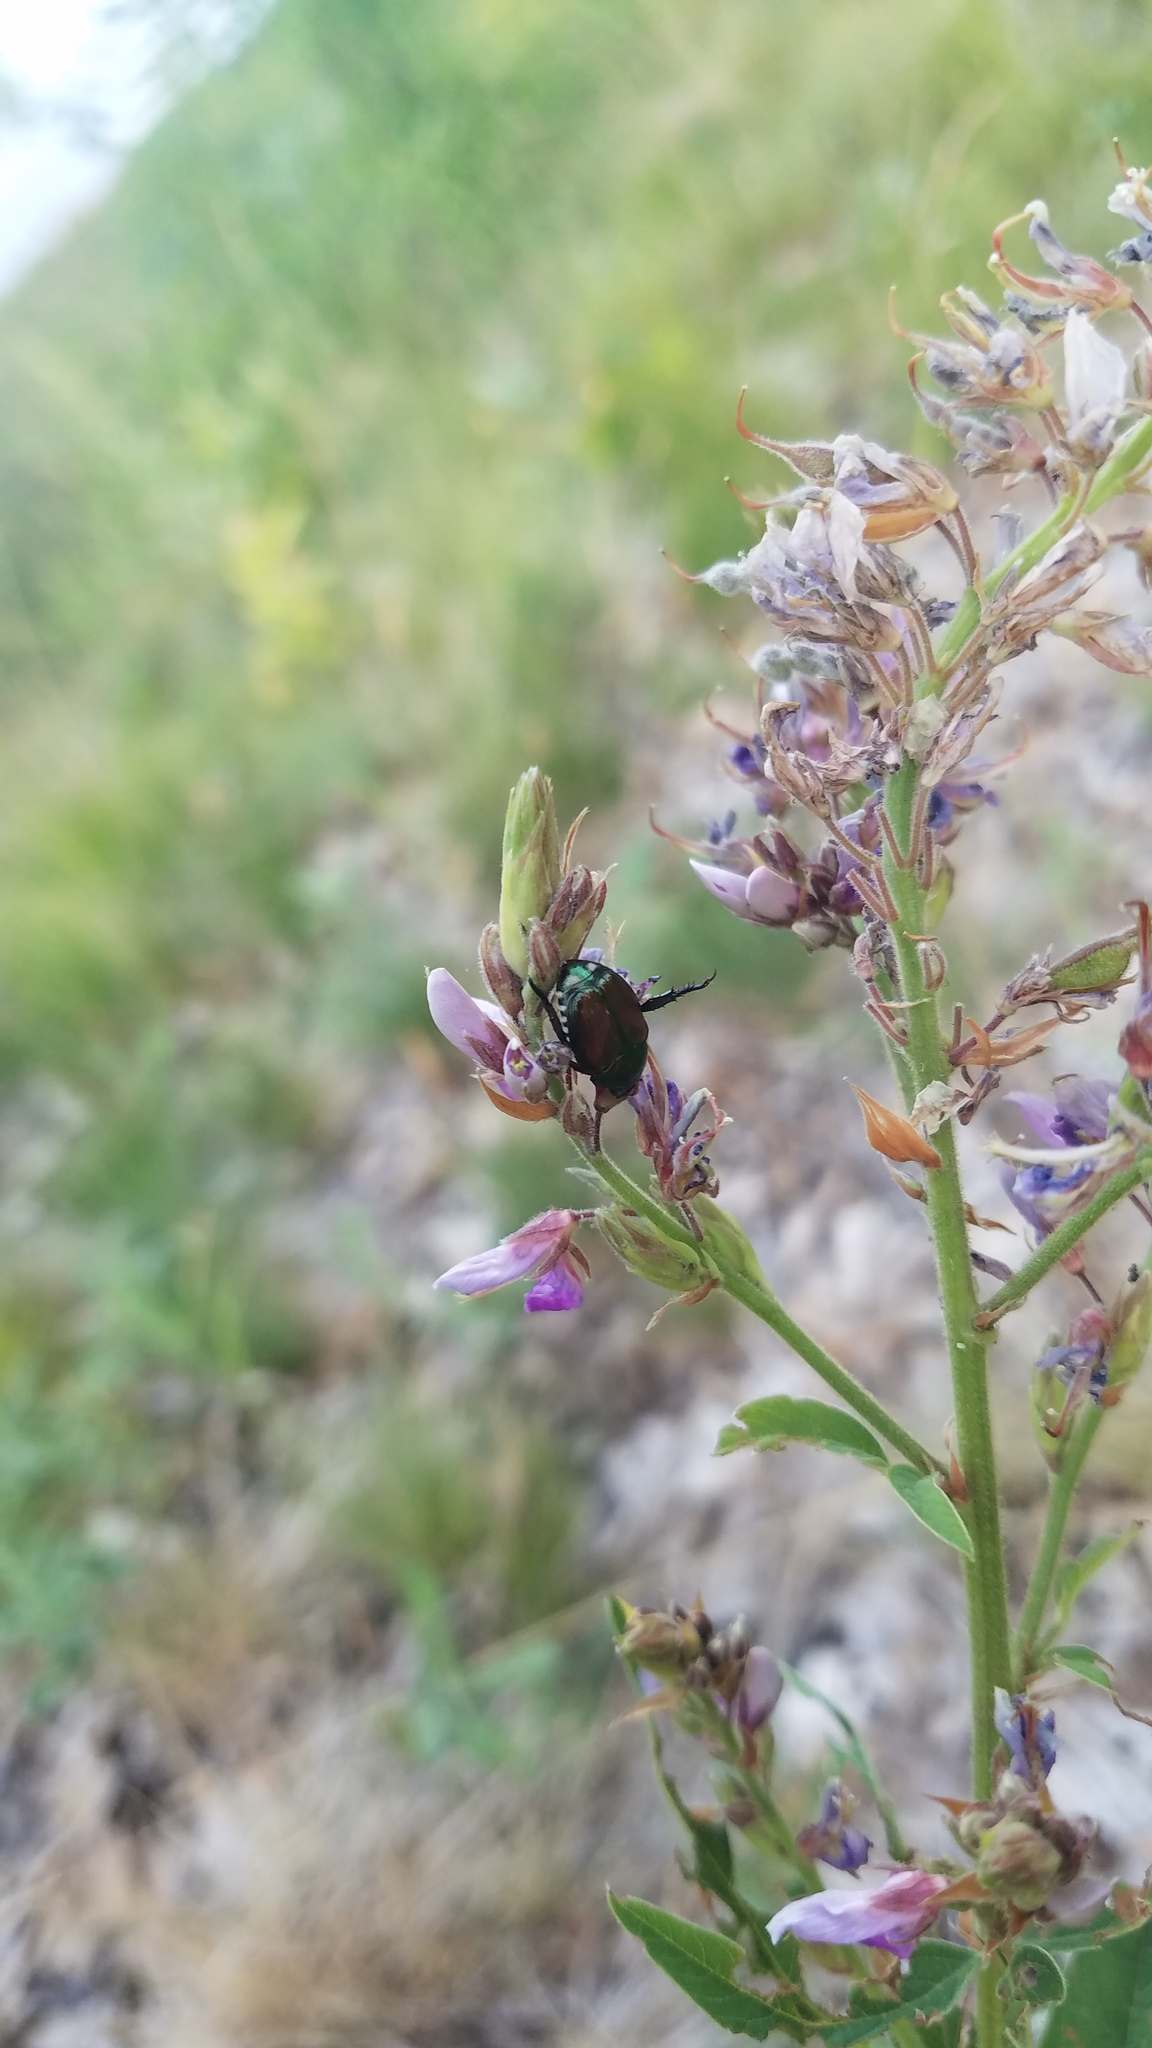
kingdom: Animalia
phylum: Arthropoda
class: Insecta
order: Coleoptera
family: Scarabaeidae
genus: Popillia
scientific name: Popillia japonica
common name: Japanese beetle
